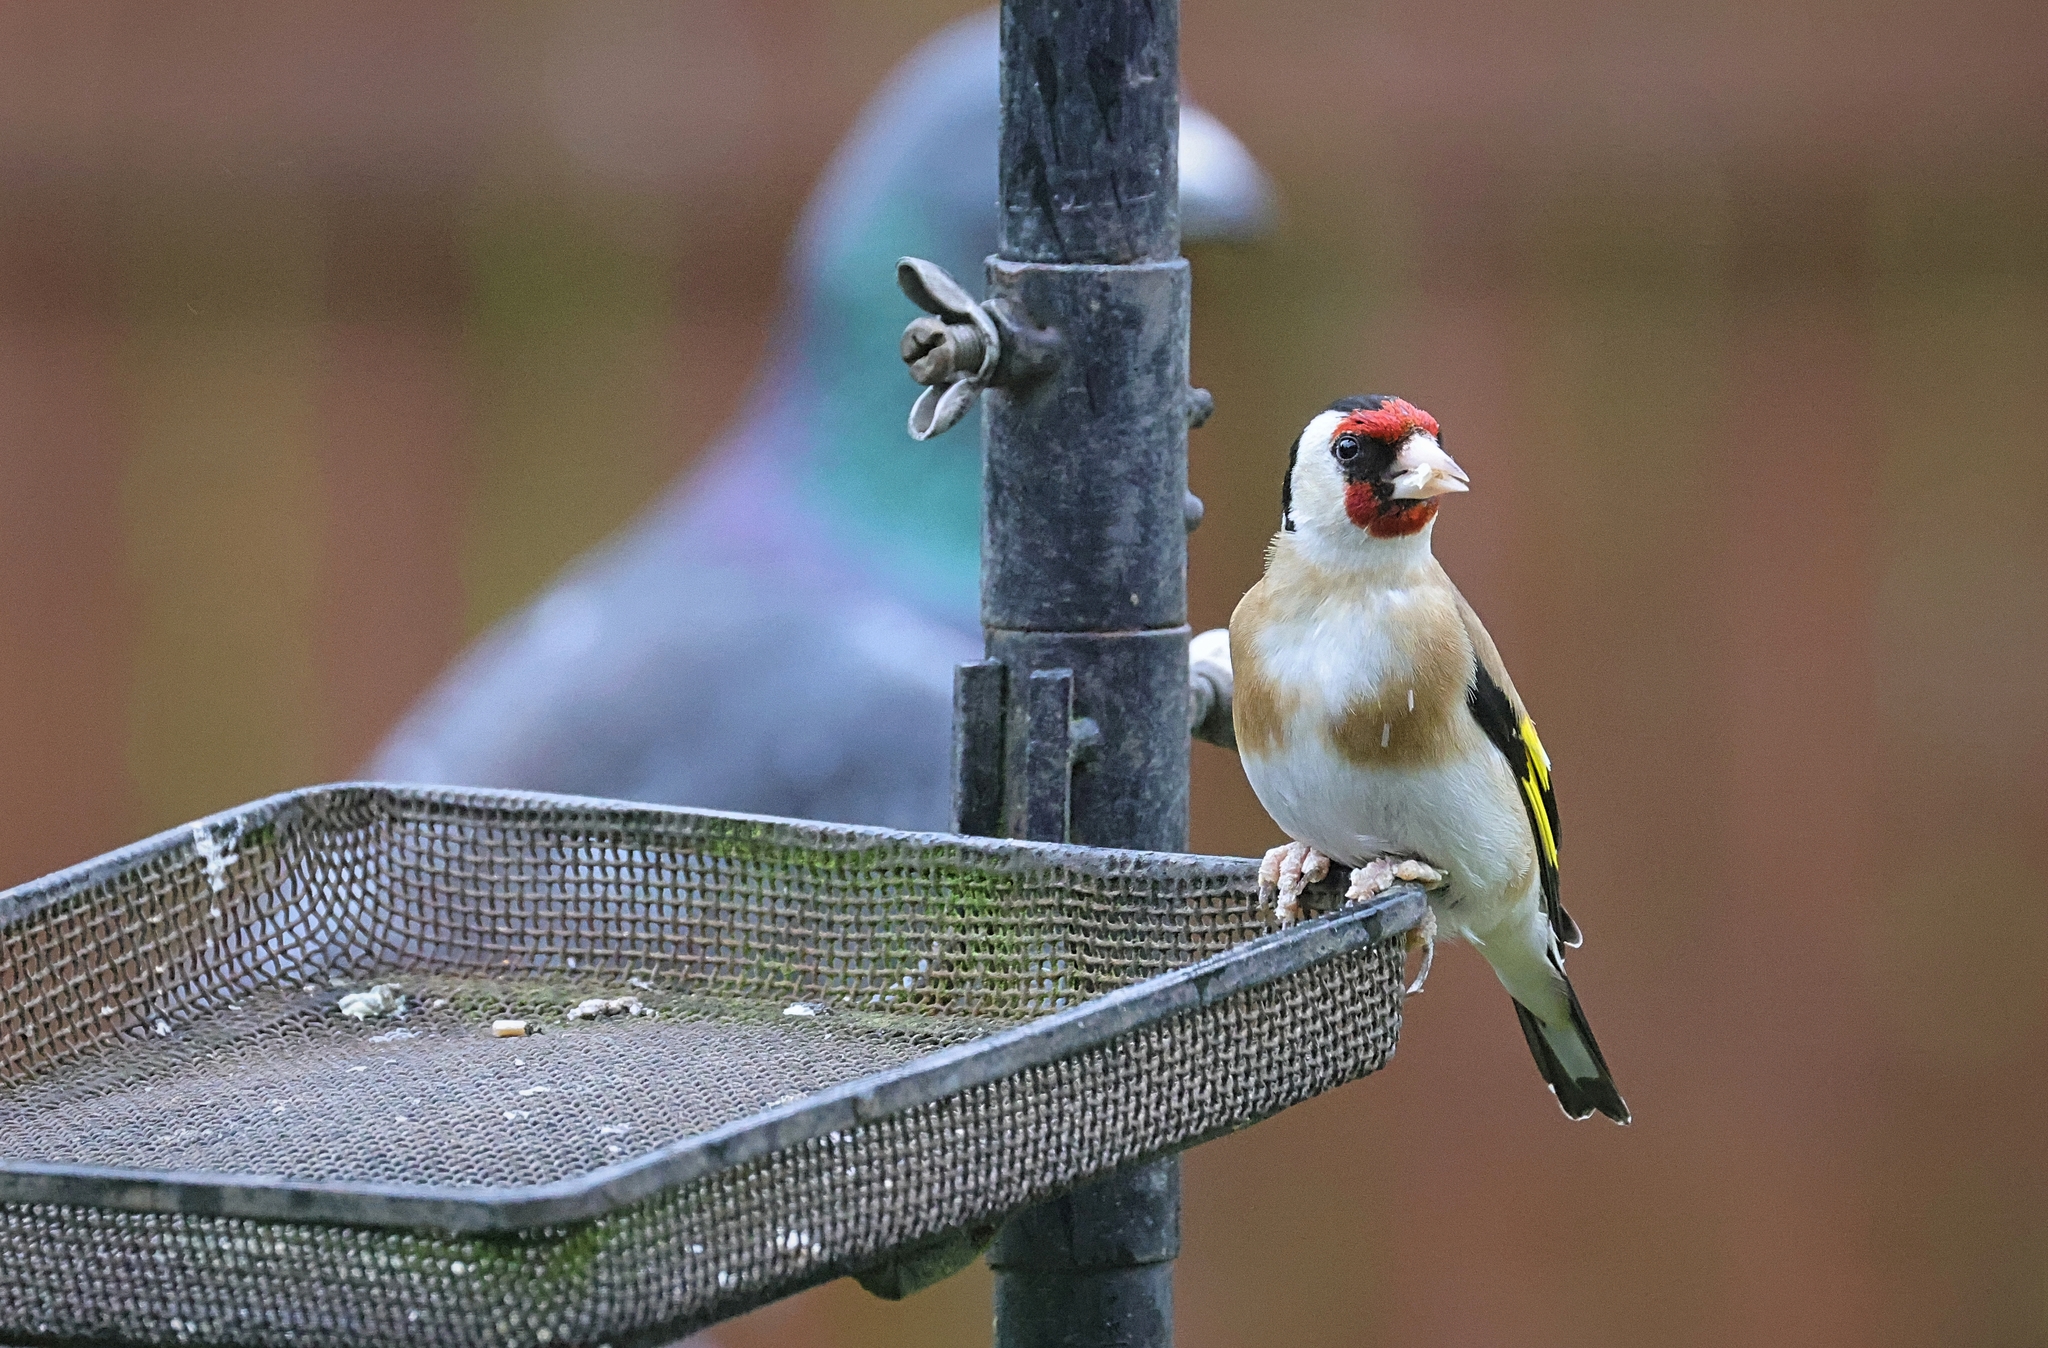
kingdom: Animalia
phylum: Chordata
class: Aves
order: Passeriformes
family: Fringillidae
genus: Carduelis
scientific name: Carduelis carduelis
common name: European goldfinch
